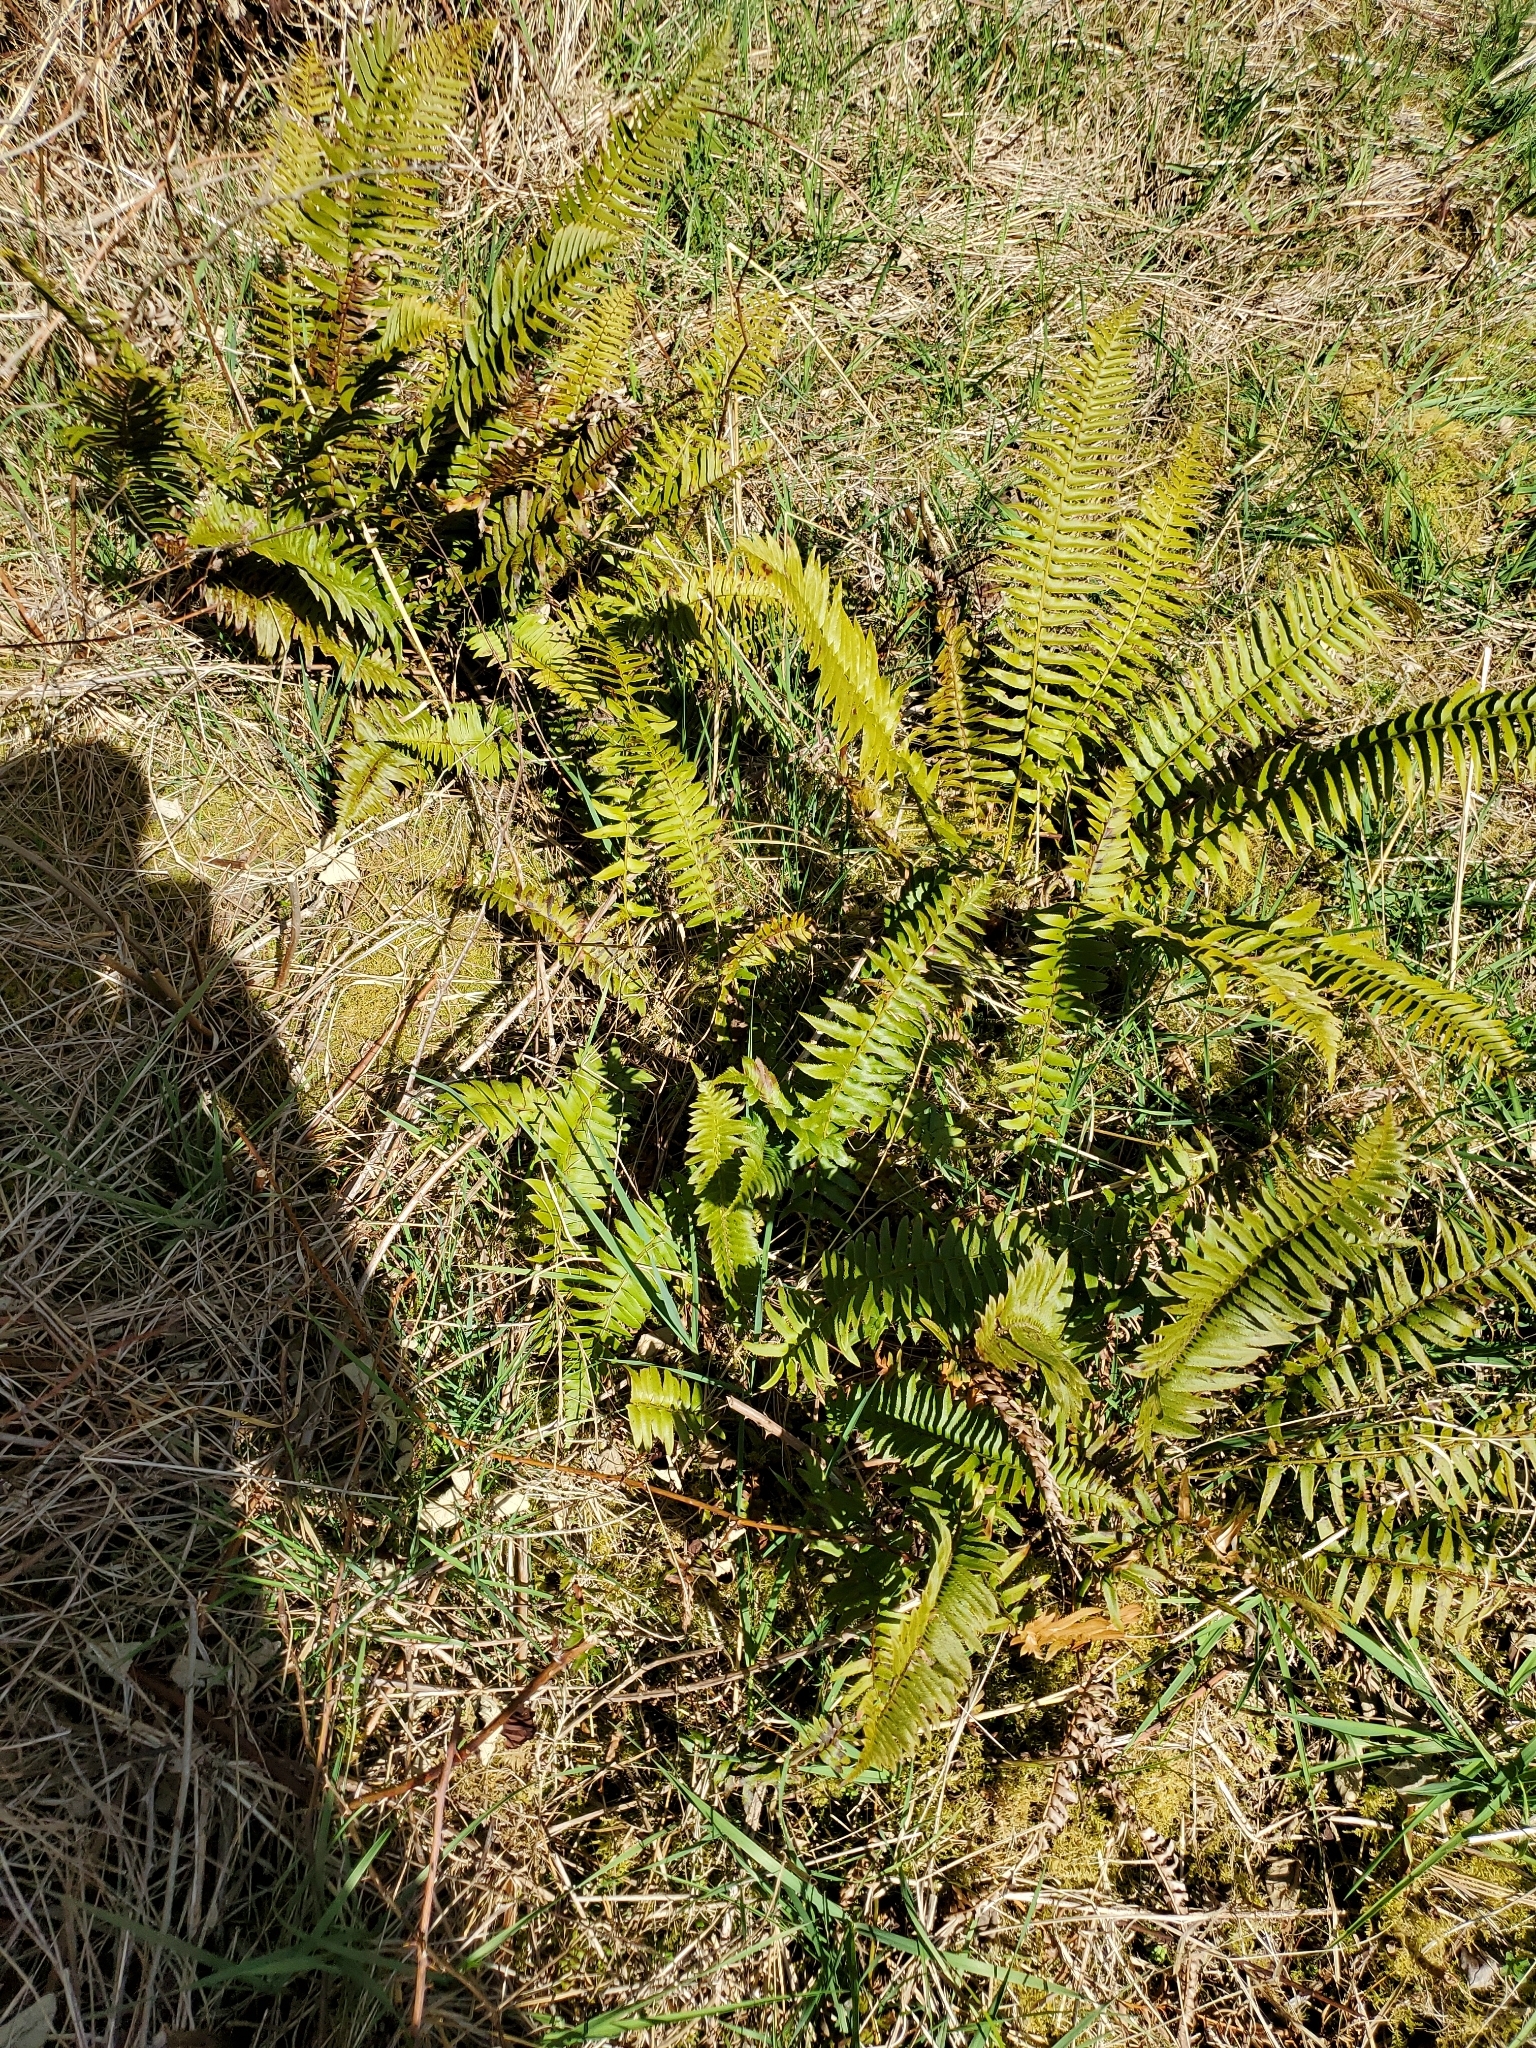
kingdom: Plantae
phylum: Tracheophyta
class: Polypodiopsida
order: Polypodiales
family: Dryopteridaceae
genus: Polystichum
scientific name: Polystichum munitum
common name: Western sword-fern
